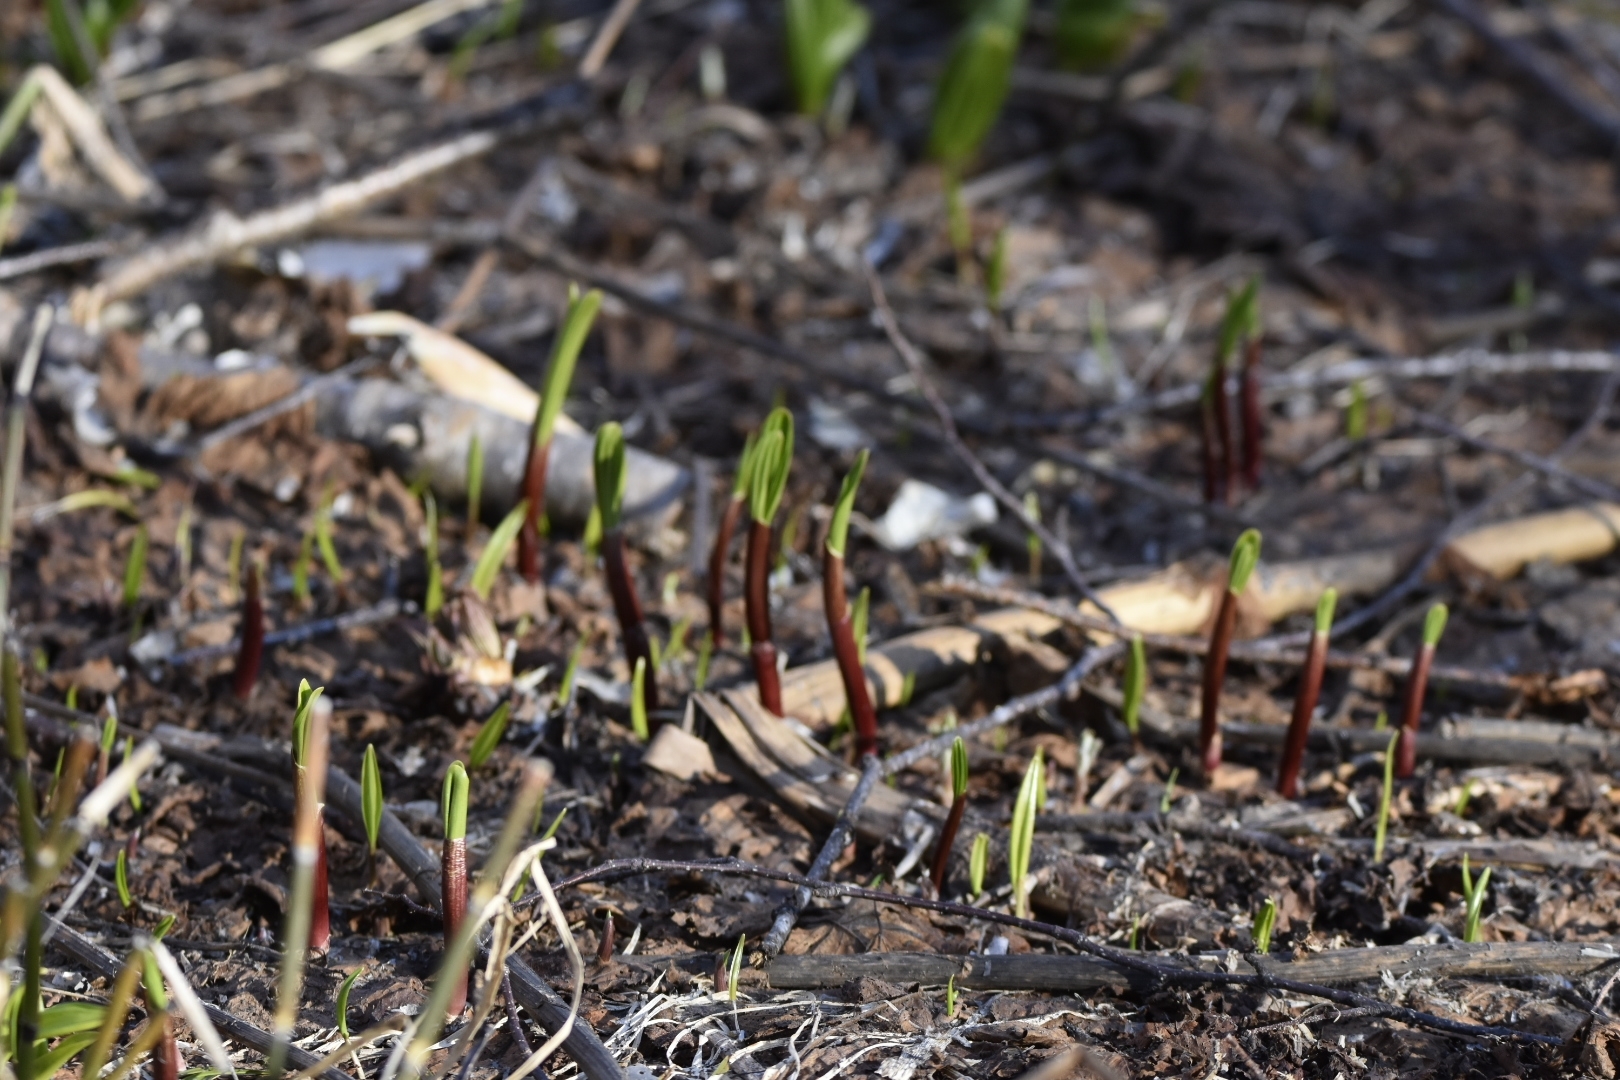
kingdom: Plantae
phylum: Tracheophyta
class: Liliopsida
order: Asparagales
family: Amaryllidaceae
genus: Allium
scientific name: Allium ochotense
